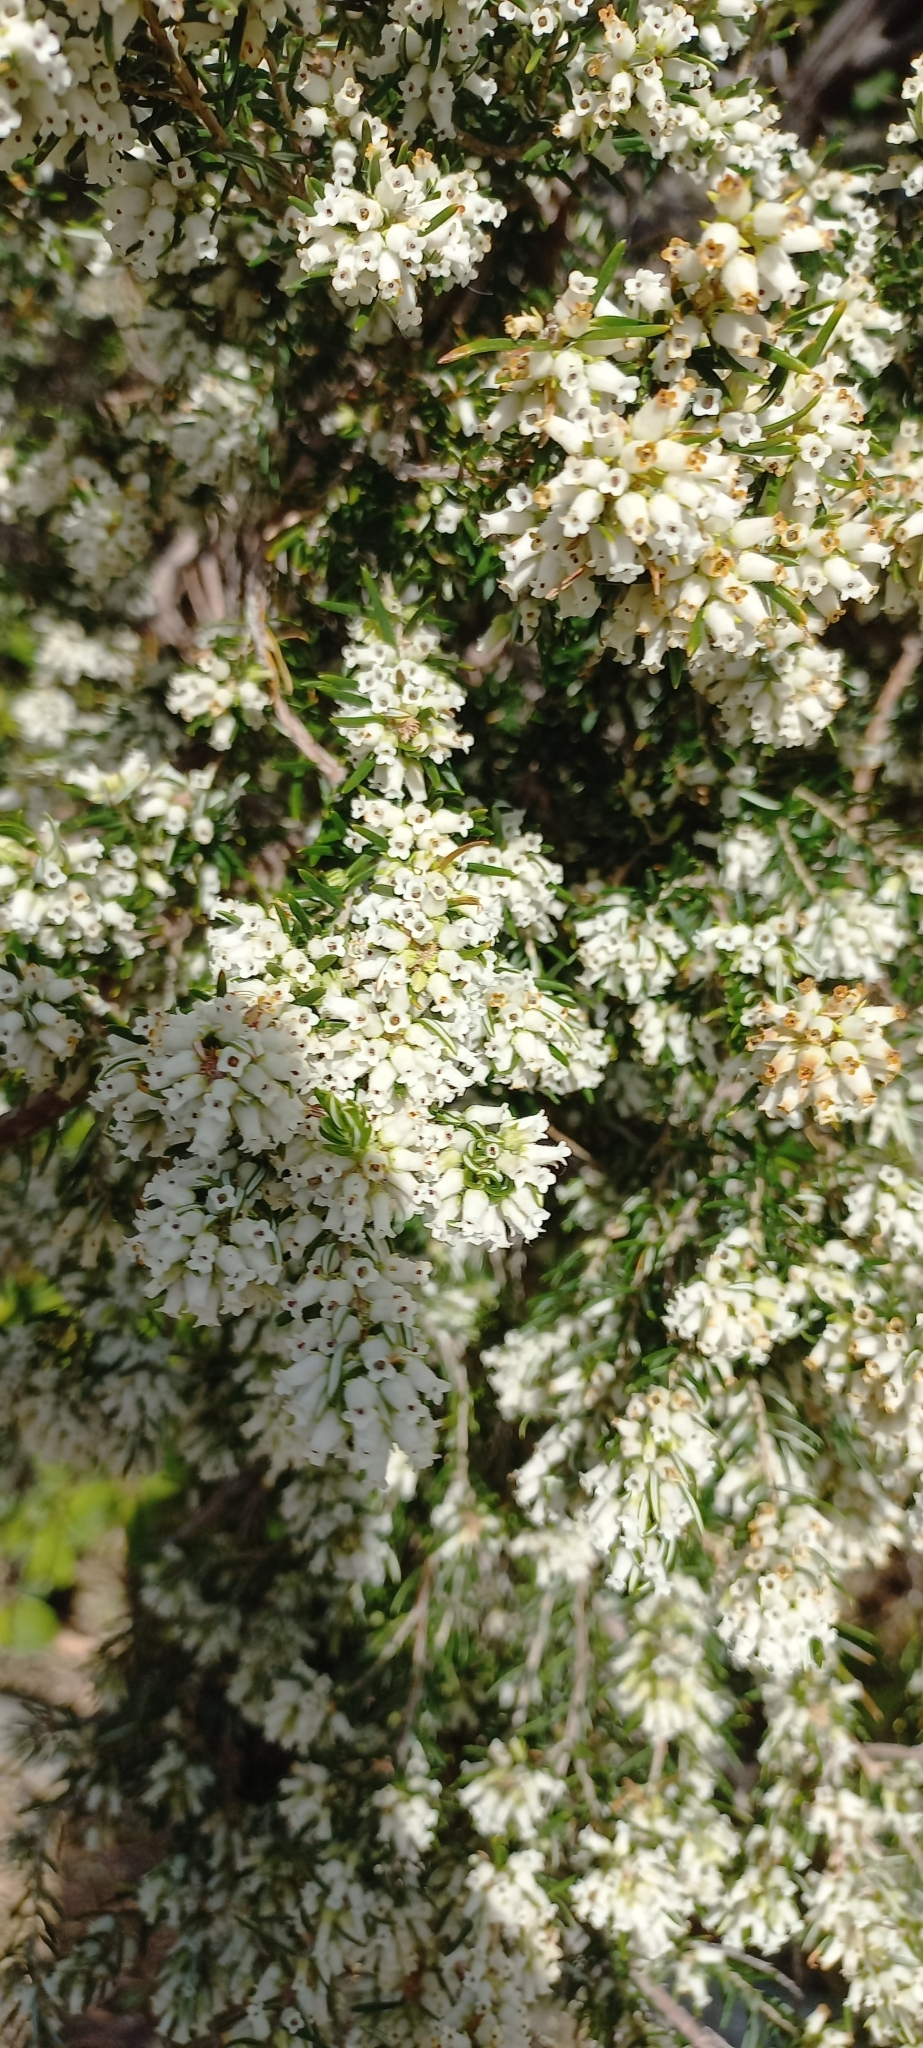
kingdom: Plantae
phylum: Tracheophyta
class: Magnoliopsida
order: Ericales
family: Ericaceae
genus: Erica
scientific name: Erica caffra
